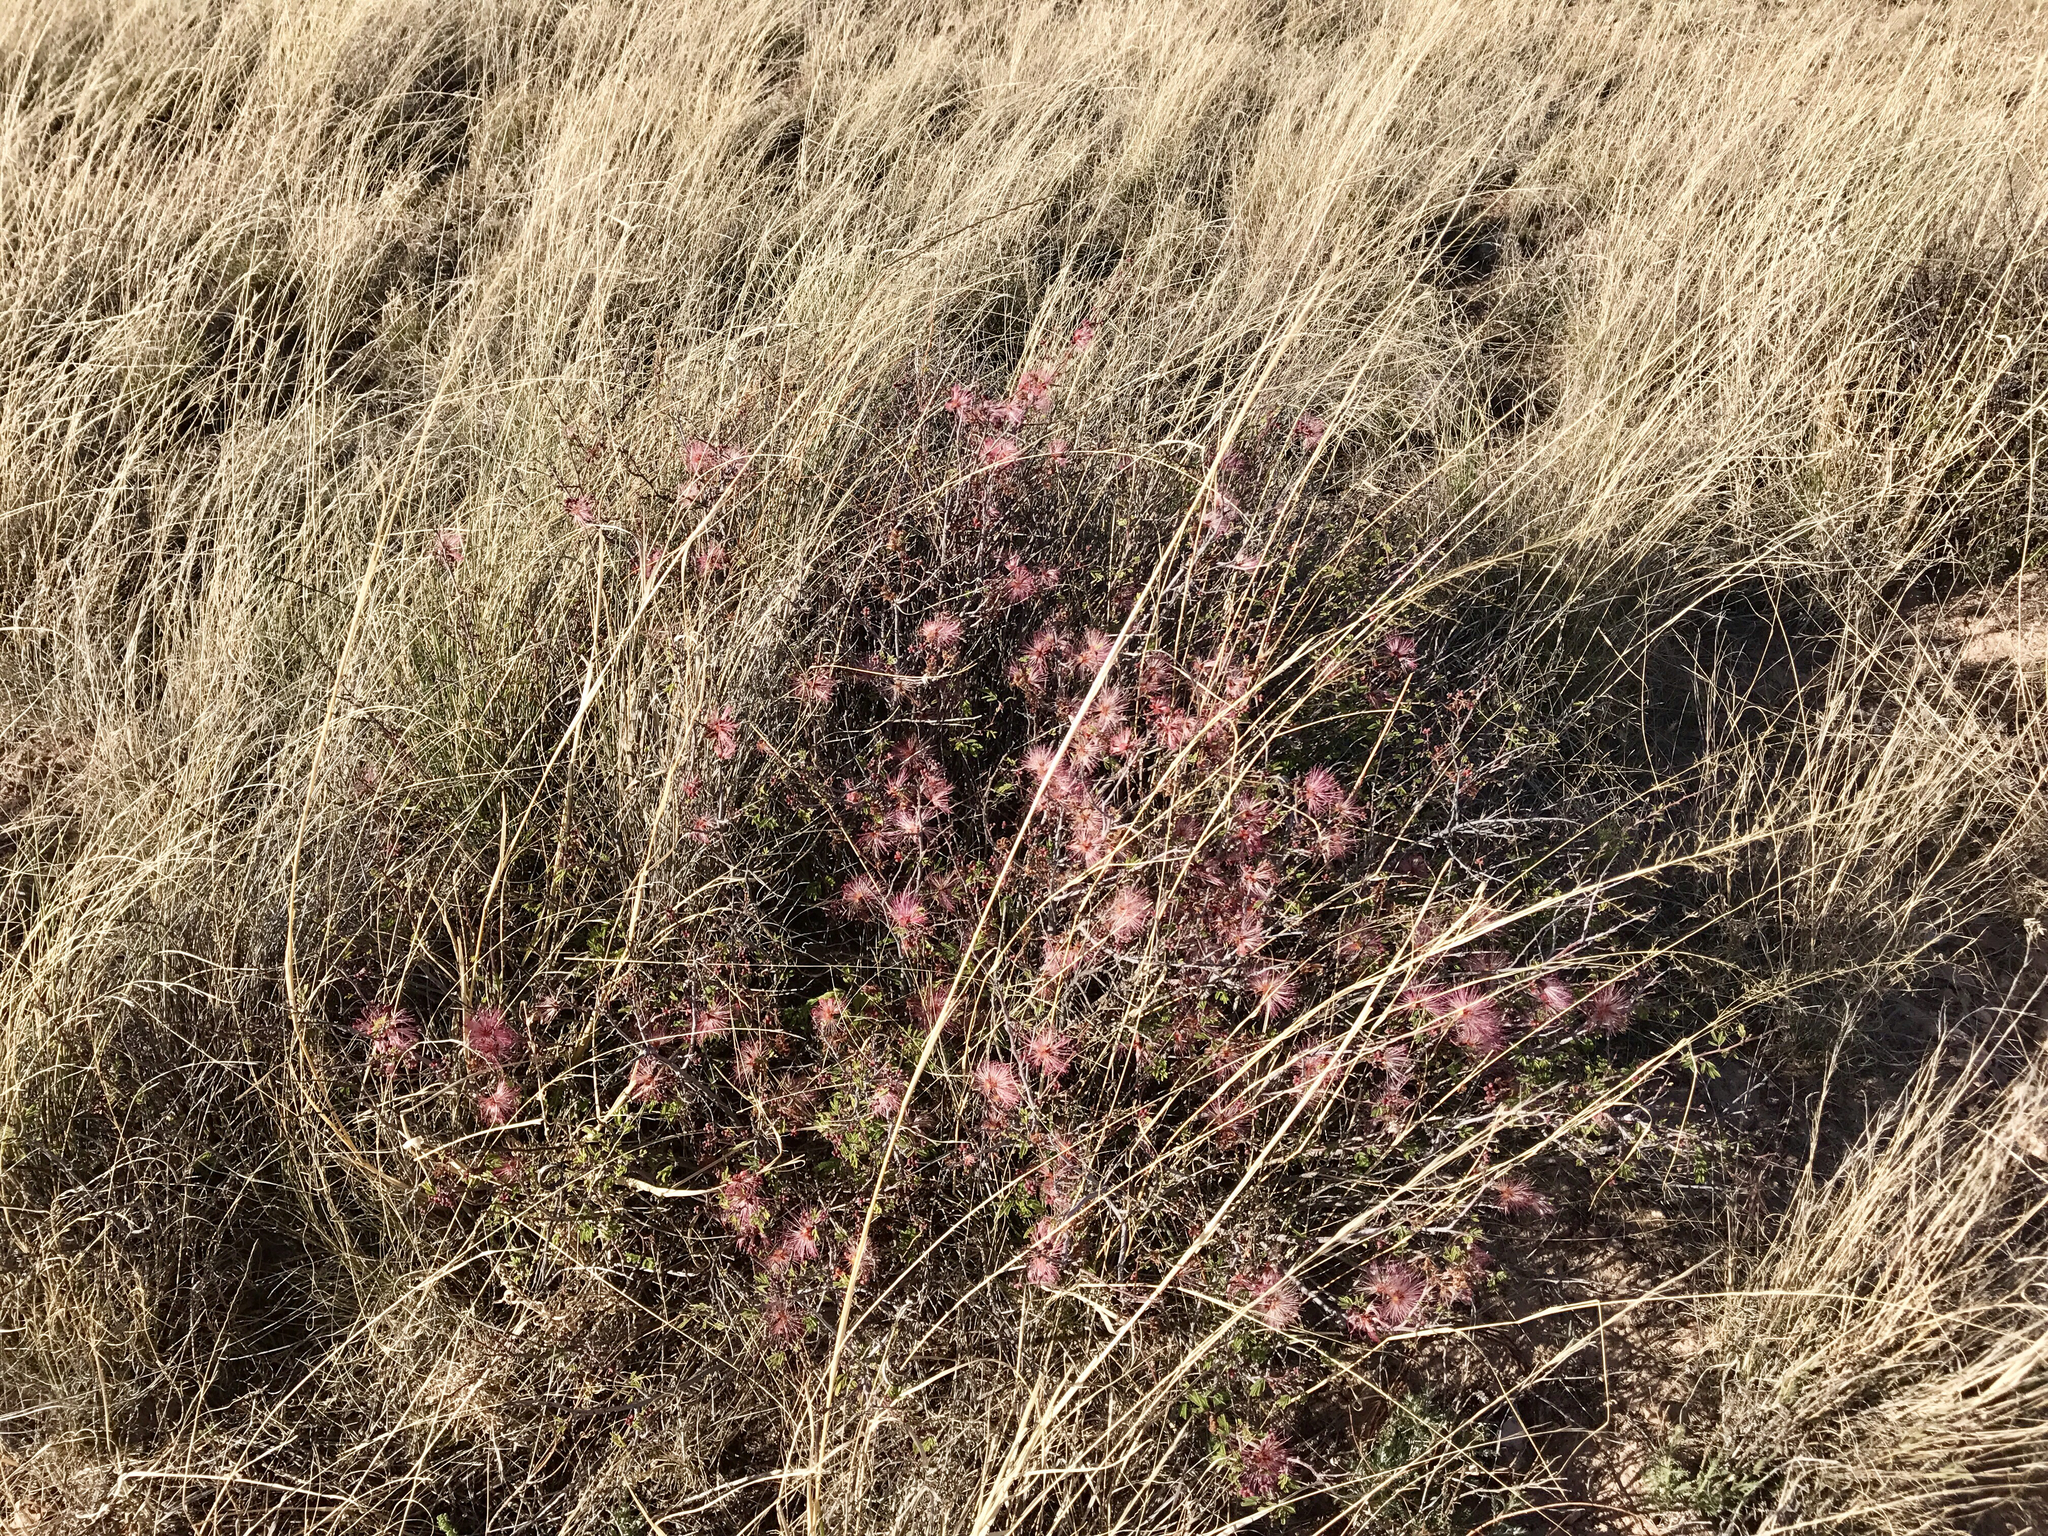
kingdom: Plantae
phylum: Tracheophyta
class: Magnoliopsida
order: Fabales
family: Fabaceae
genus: Calliandra
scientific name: Calliandra eriophylla
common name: Fairy-duster
